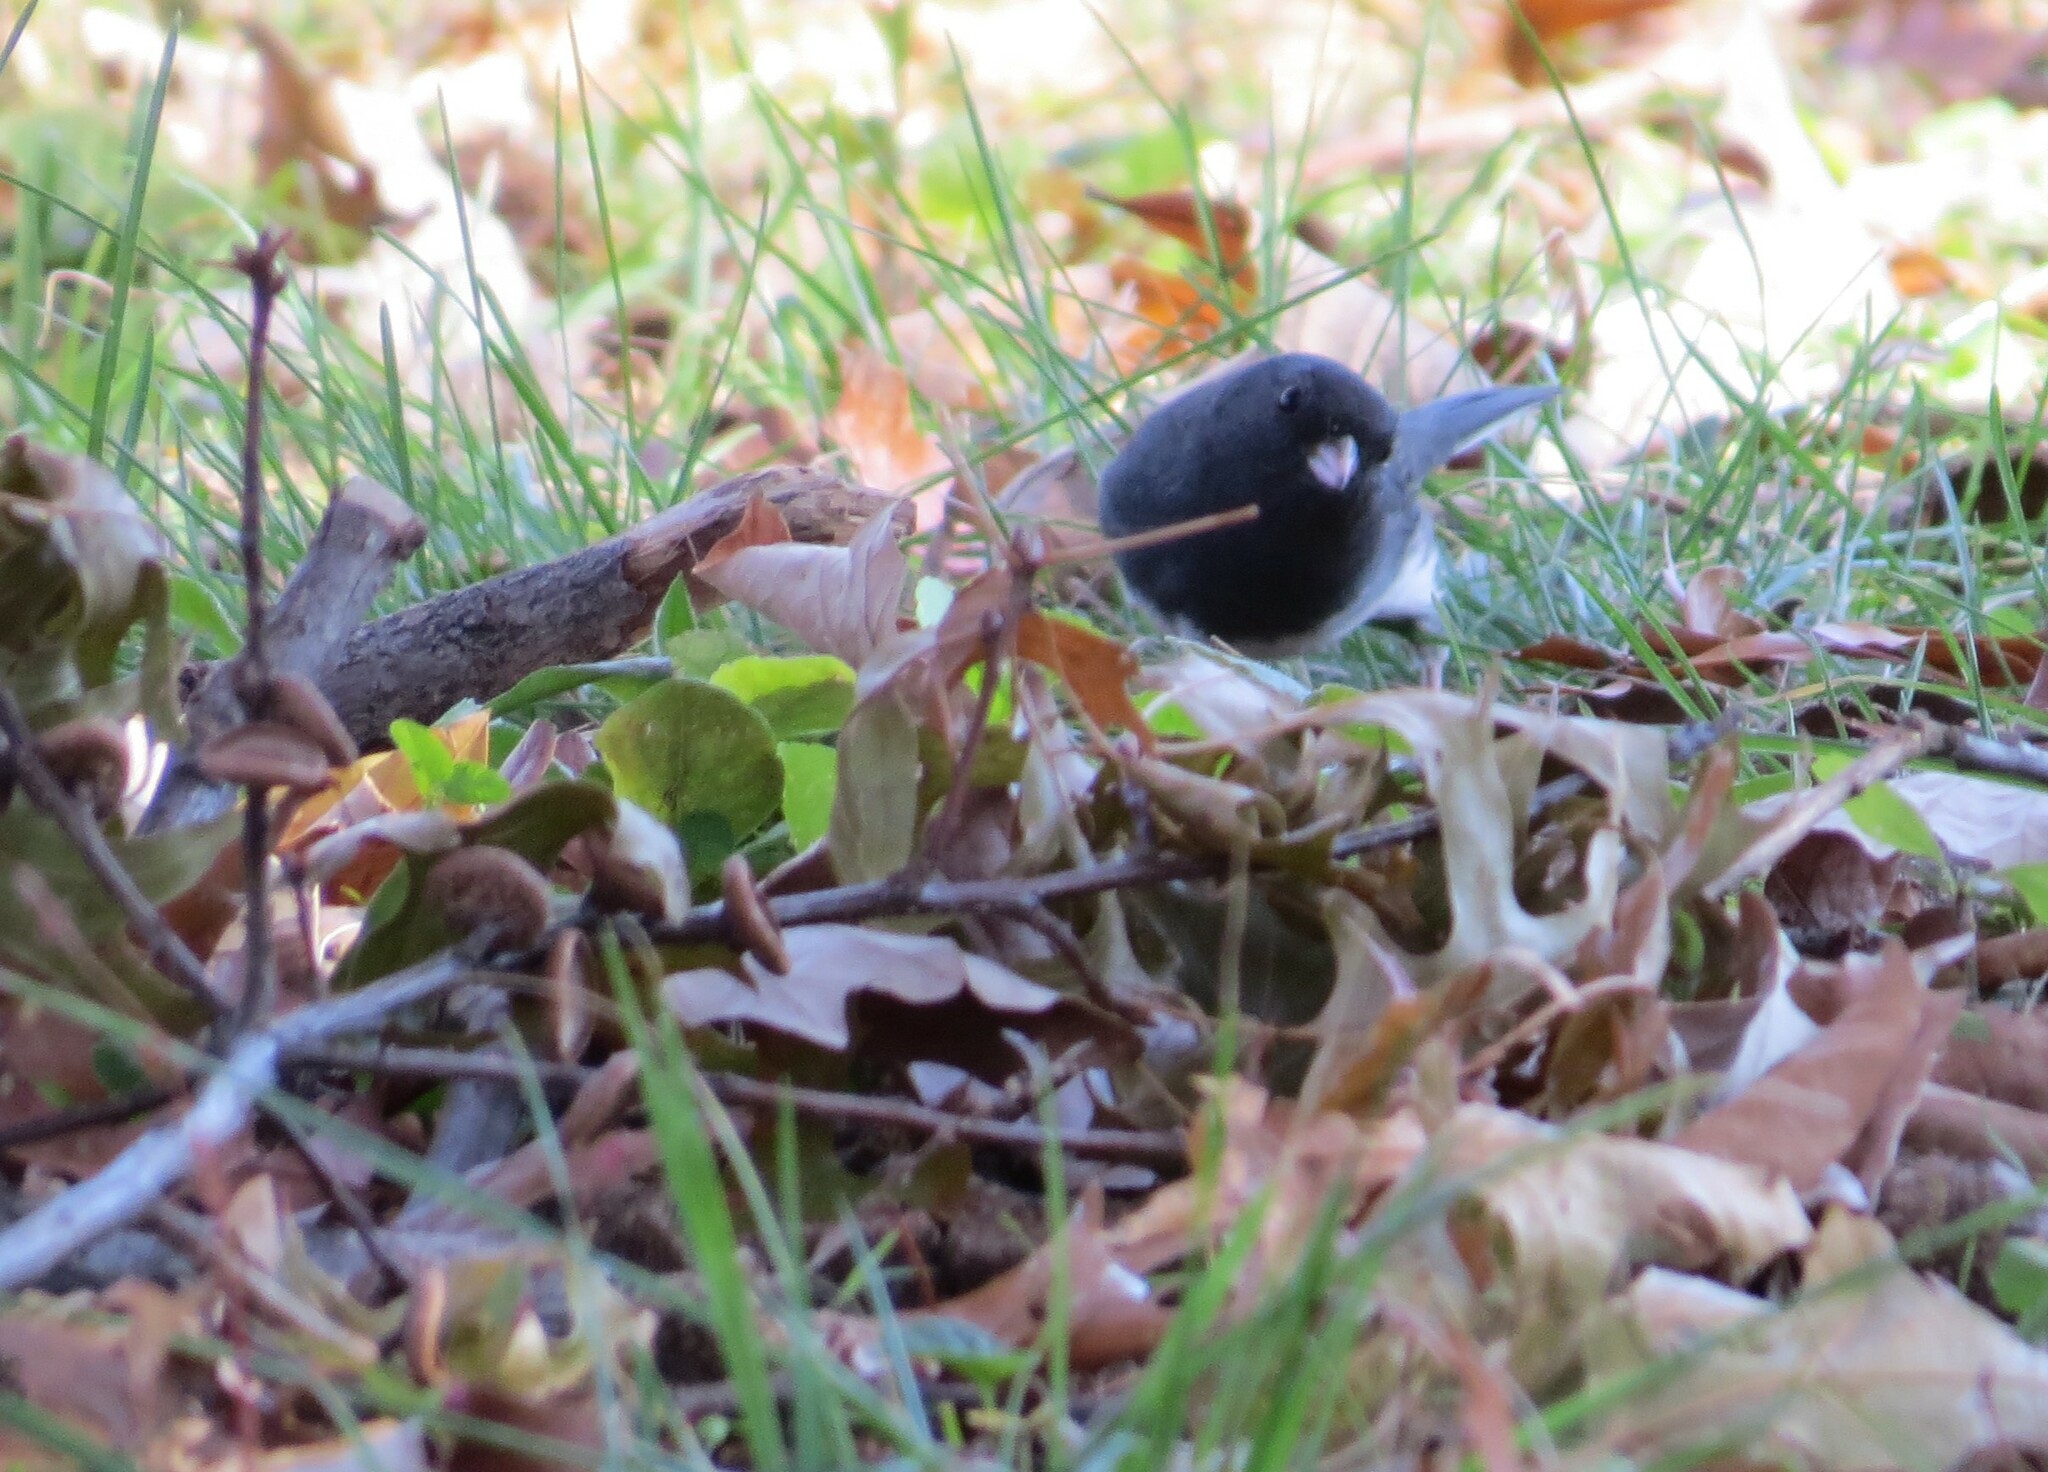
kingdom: Animalia
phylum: Chordata
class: Aves
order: Passeriformes
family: Passerellidae
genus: Junco
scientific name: Junco hyemalis
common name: Dark-eyed junco
